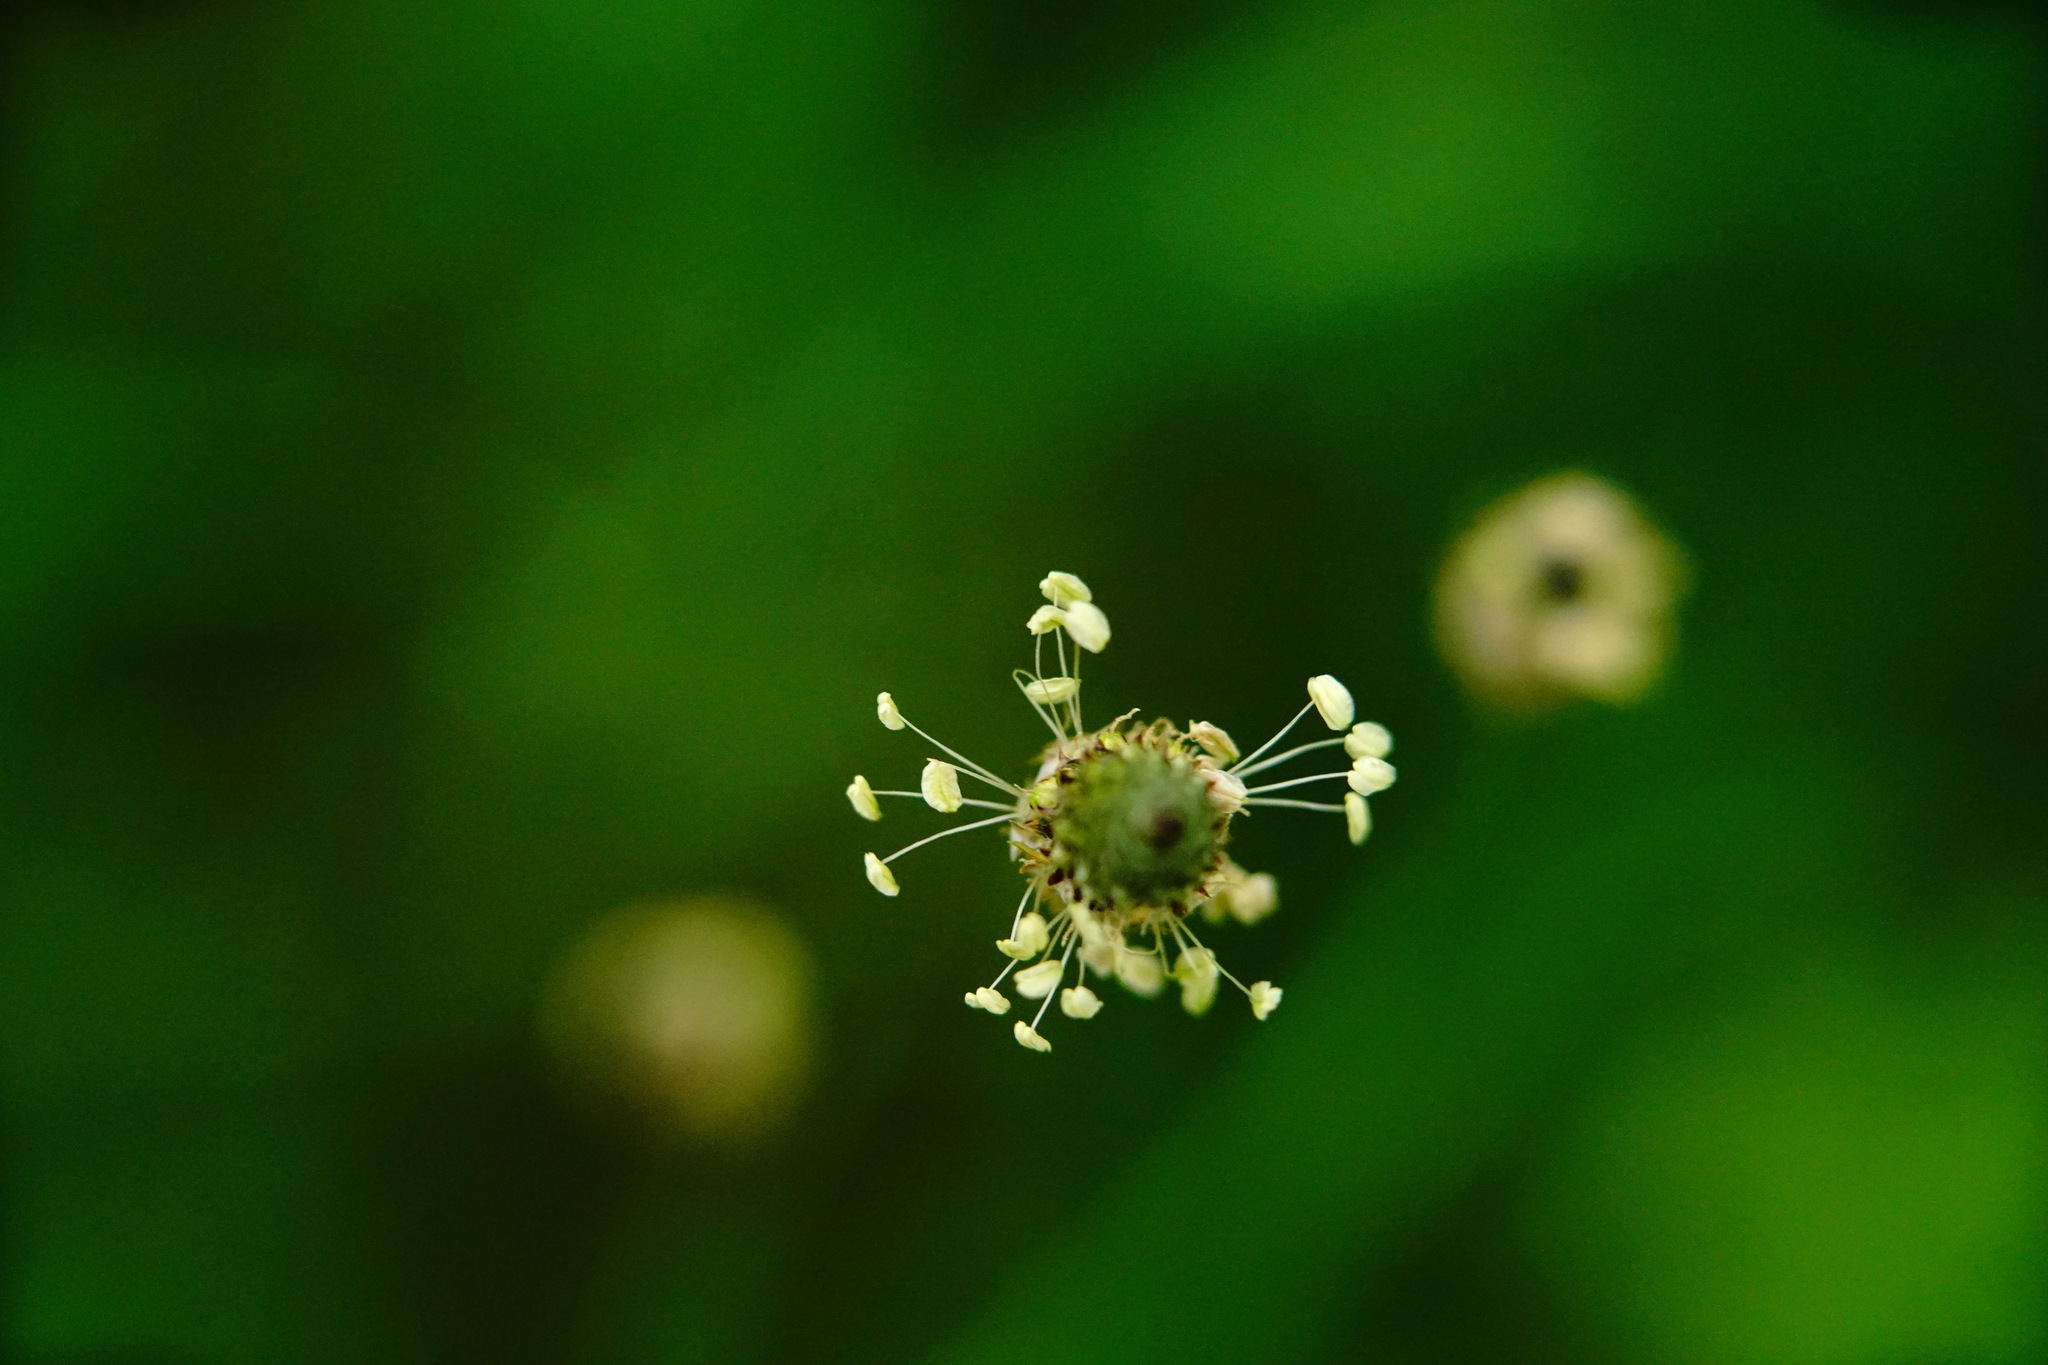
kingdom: Plantae
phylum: Tracheophyta
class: Magnoliopsida
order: Lamiales
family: Plantaginaceae
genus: Plantago
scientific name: Plantago lanceolata
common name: Ribwort plantain
